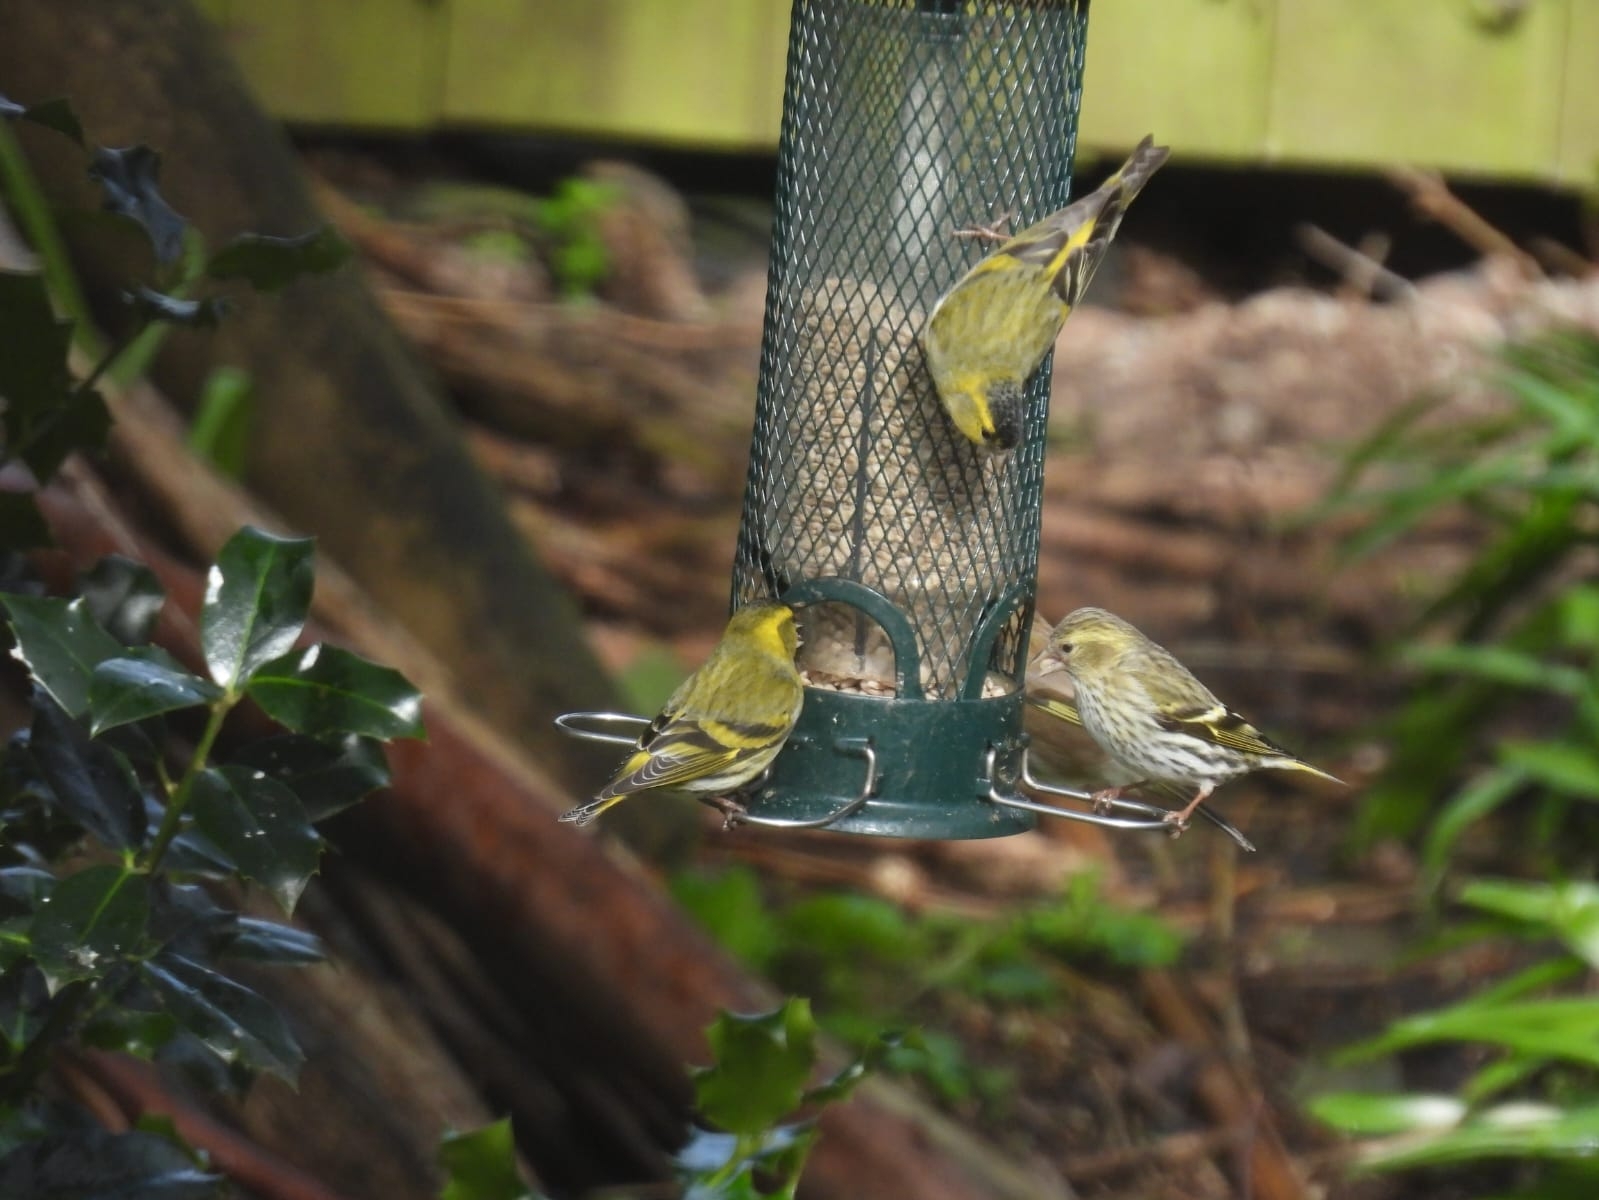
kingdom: Animalia
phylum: Chordata
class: Aves
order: Passeriformes
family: Fringillidae
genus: Spinus
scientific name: Spinus spinus
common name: Eurasian siskin
